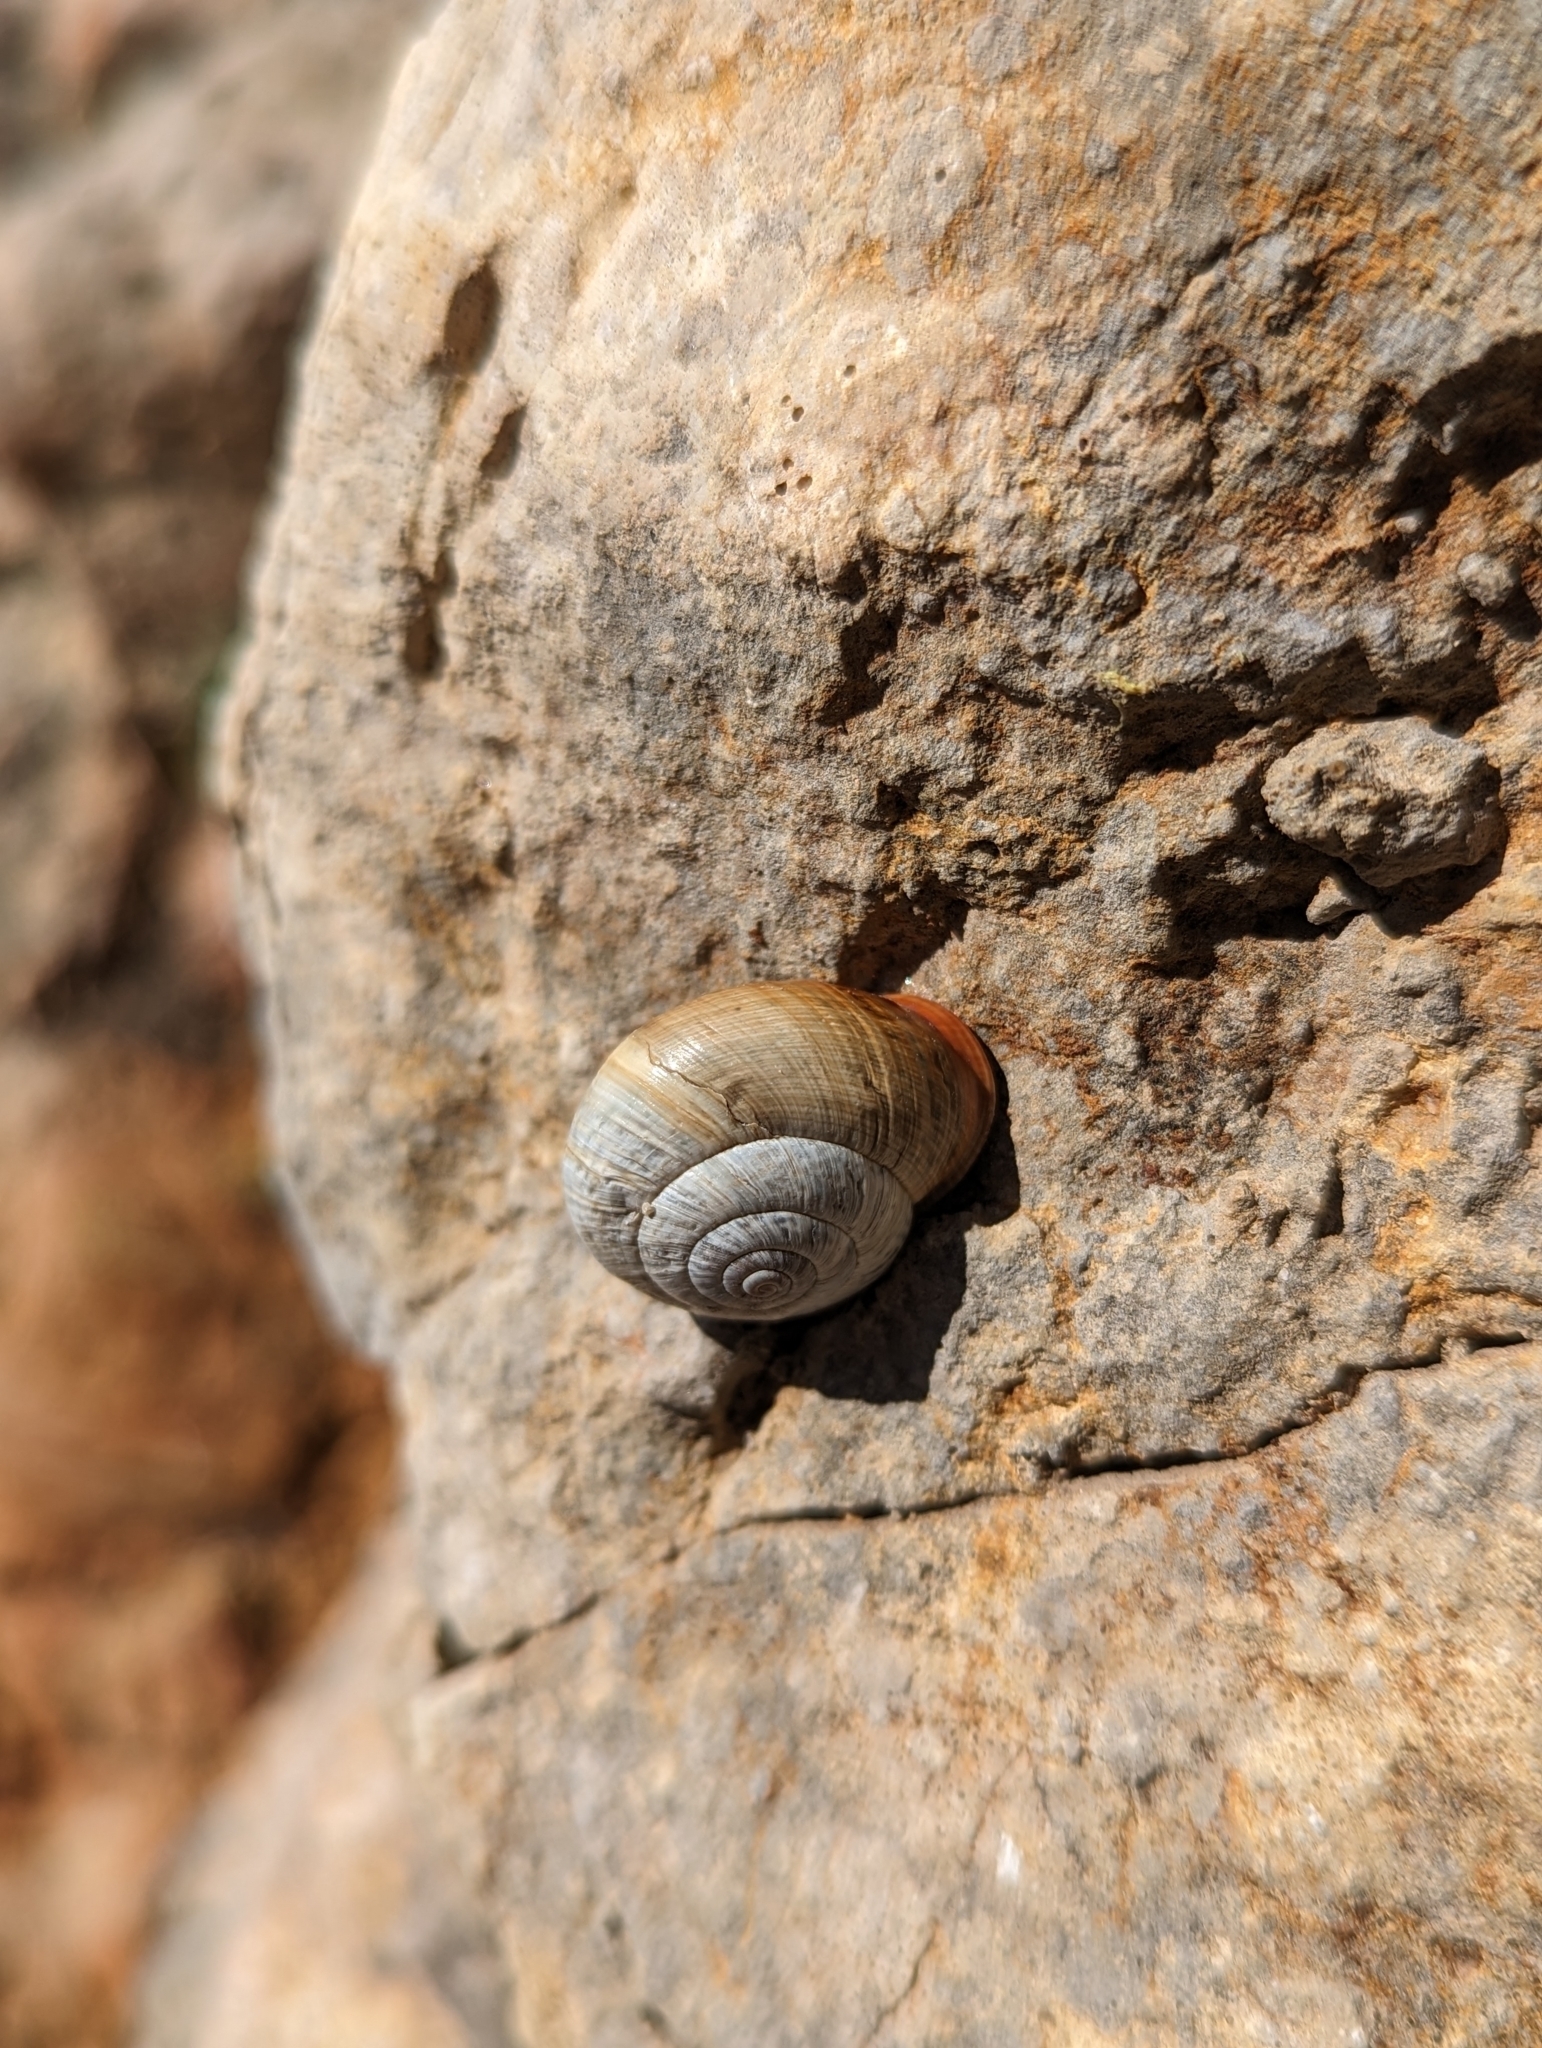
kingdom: Animalia
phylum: Mollusca
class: Gastropoda
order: Stylommatophora
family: Helicidae
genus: Arianta
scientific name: Arianta arbustorum
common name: Copse snail
